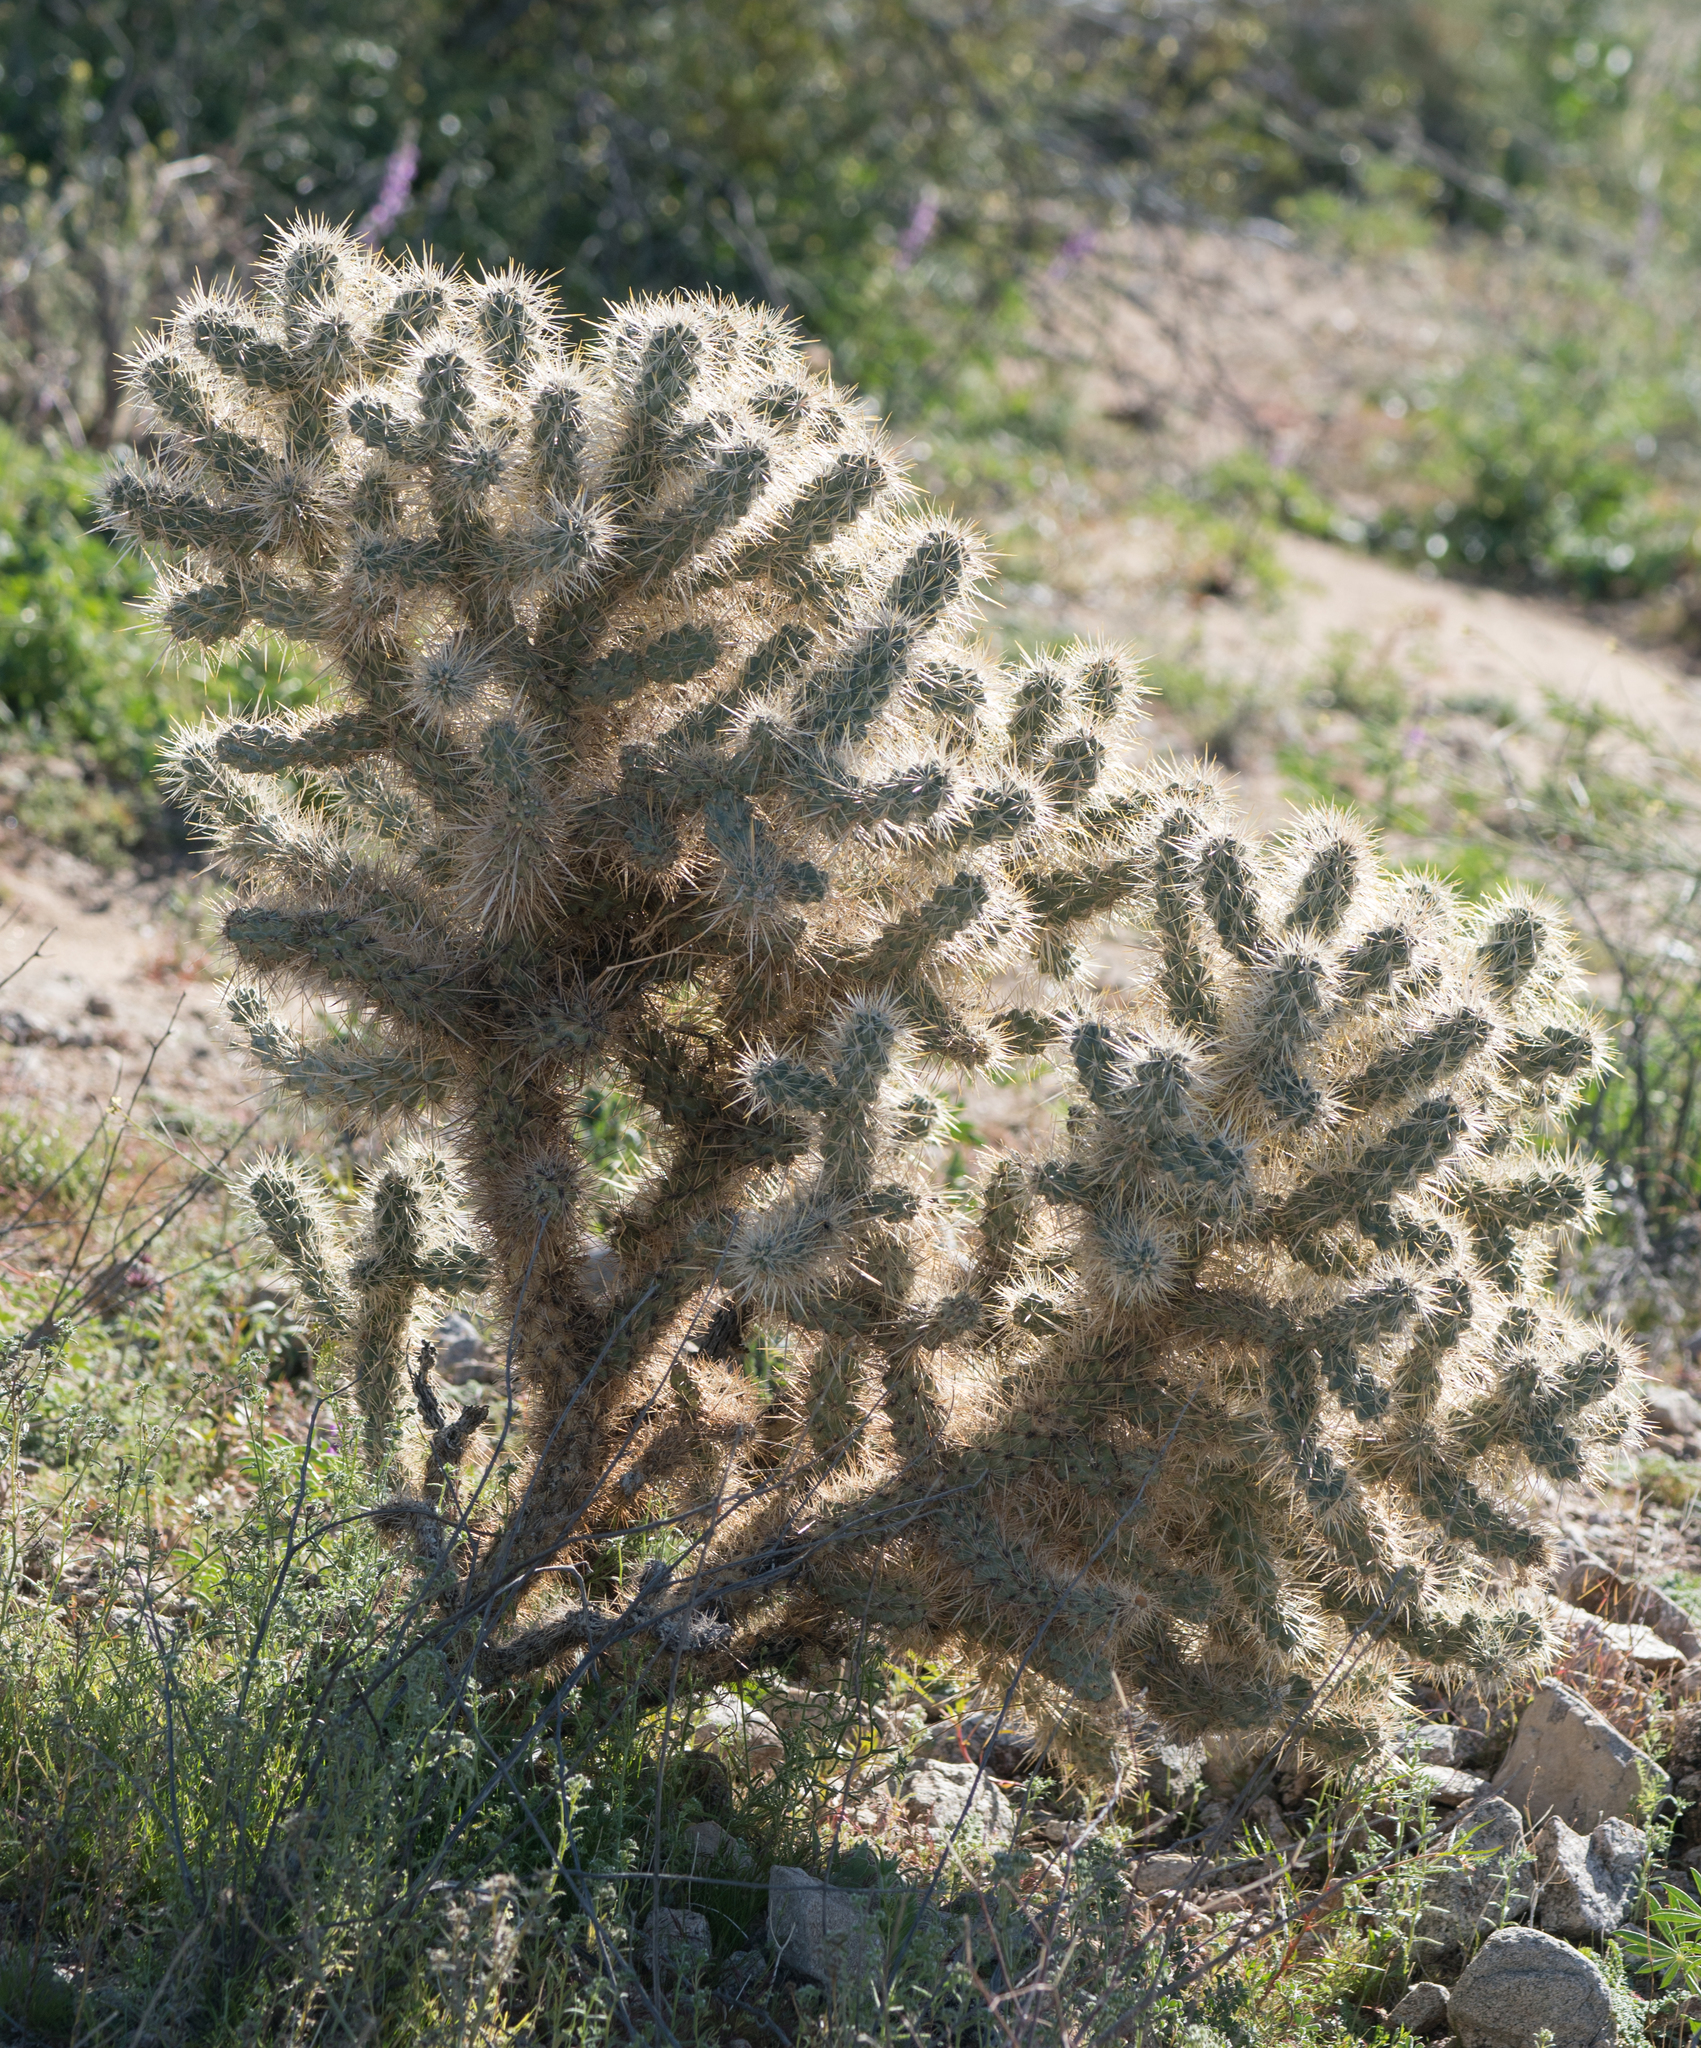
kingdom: Plantae
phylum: Tracheophyta
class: Magnoliopsida
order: Caryophyllales
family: Cactaceae
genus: Cylindropuntia
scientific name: Cylindropuntia echinocarpa
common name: Ground cholla
